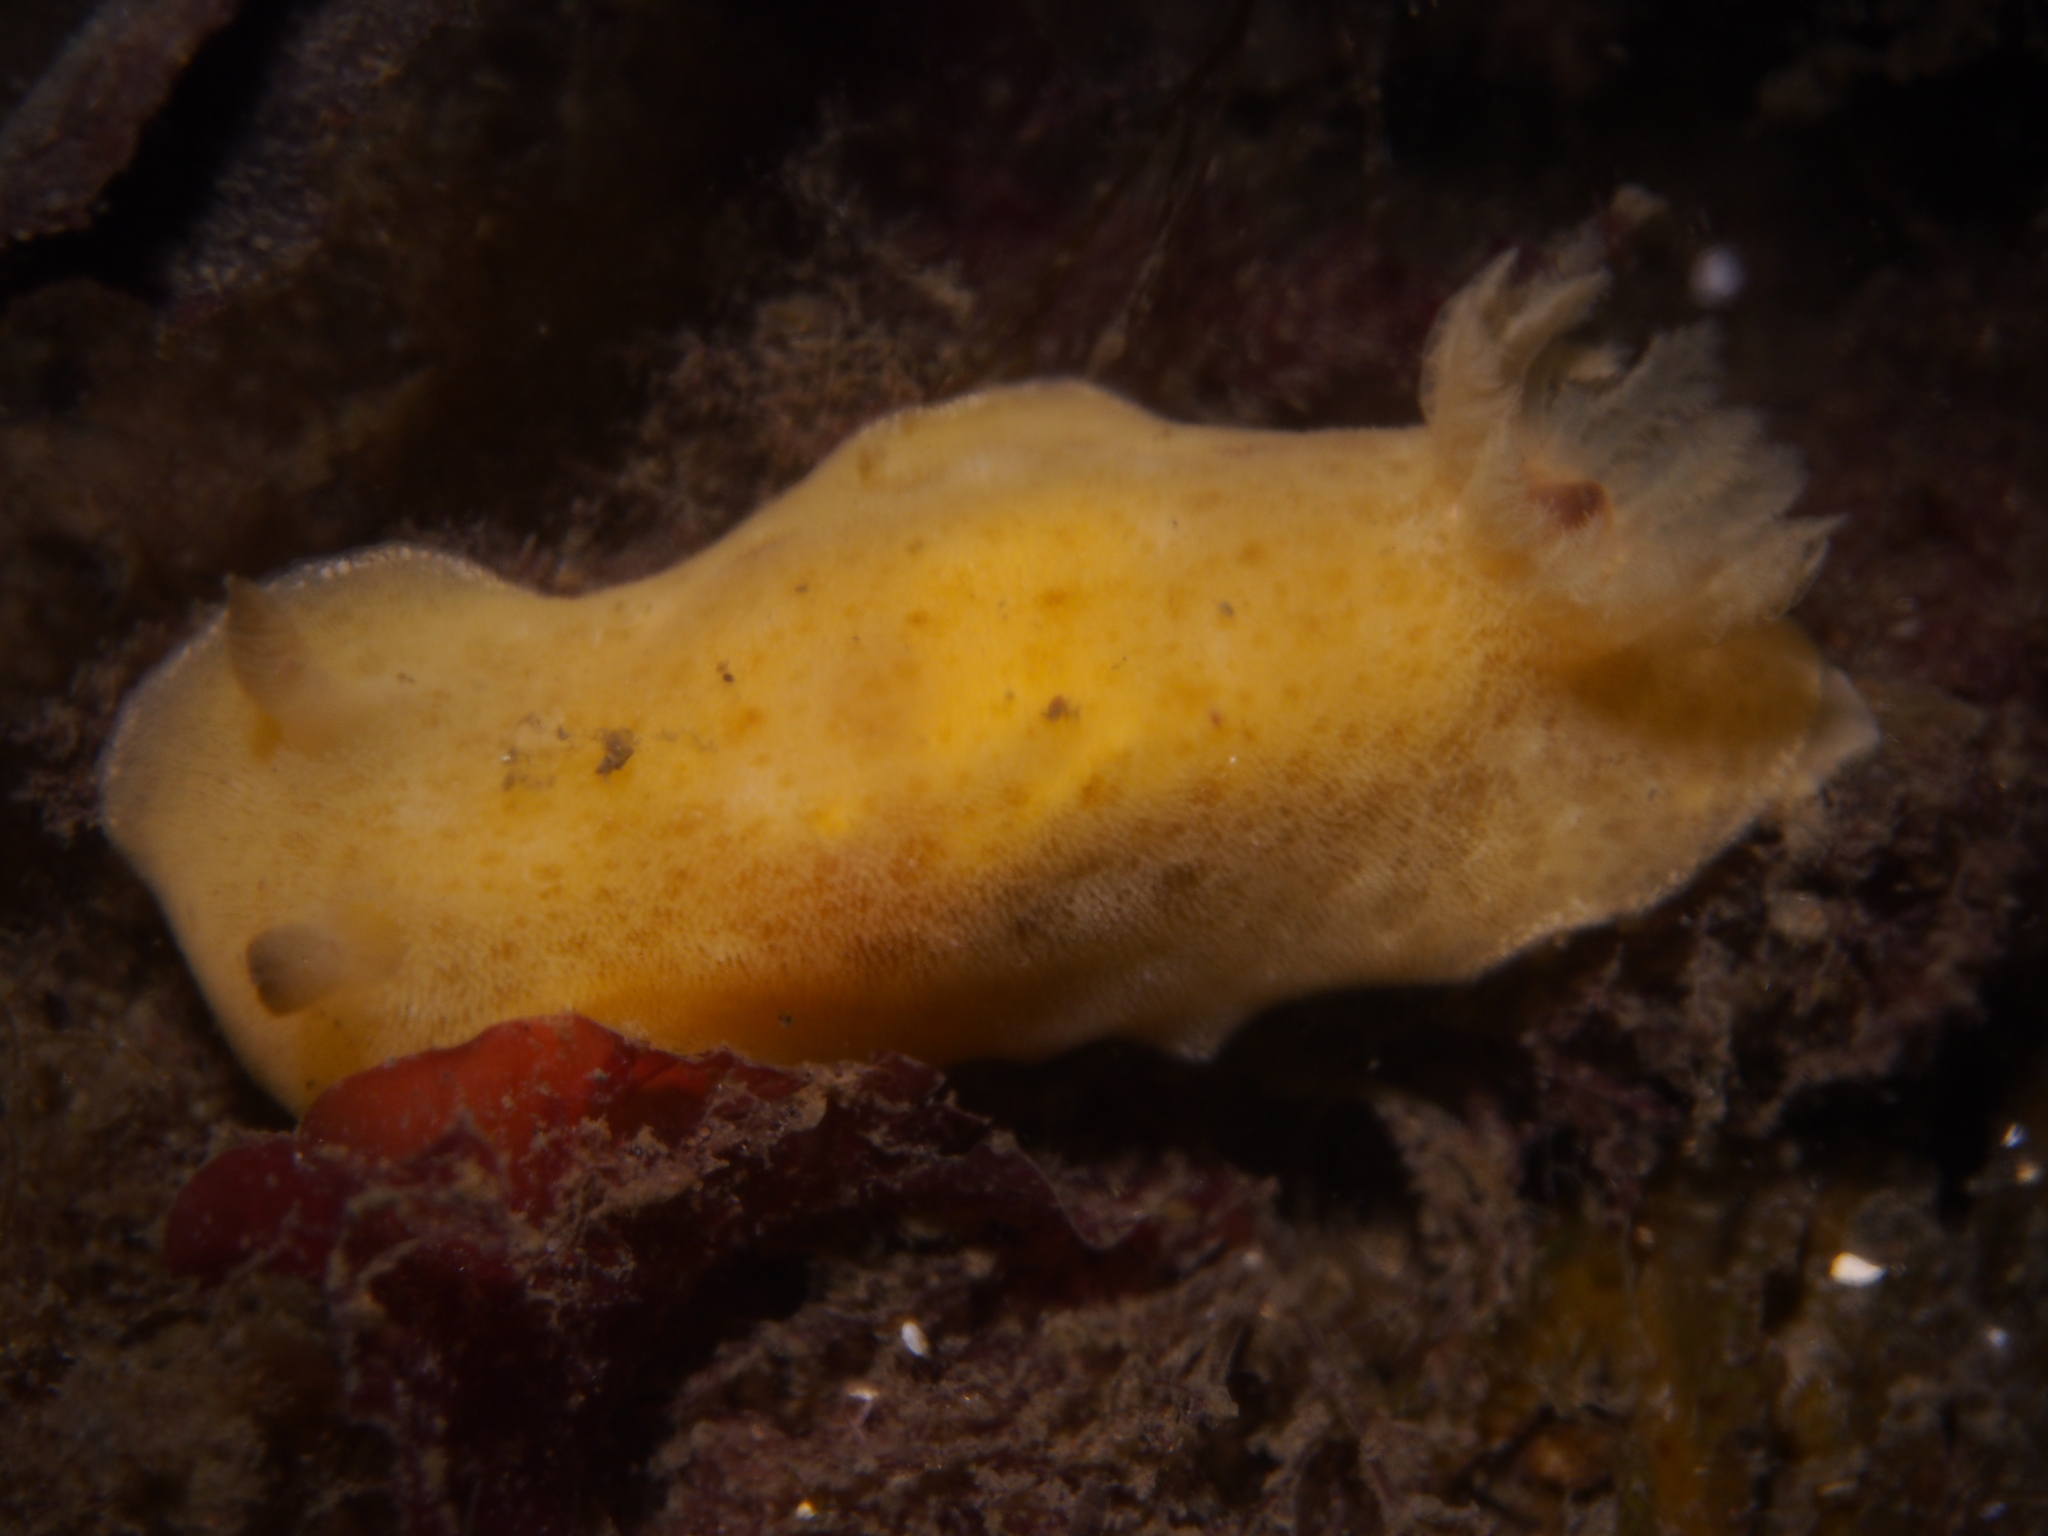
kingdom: Animalia
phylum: Mollusca
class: Gastropoda
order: Nudibranchia
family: Discodorididae
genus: Jorunna
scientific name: Jorunna tomentosa
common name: Grey sea slug
